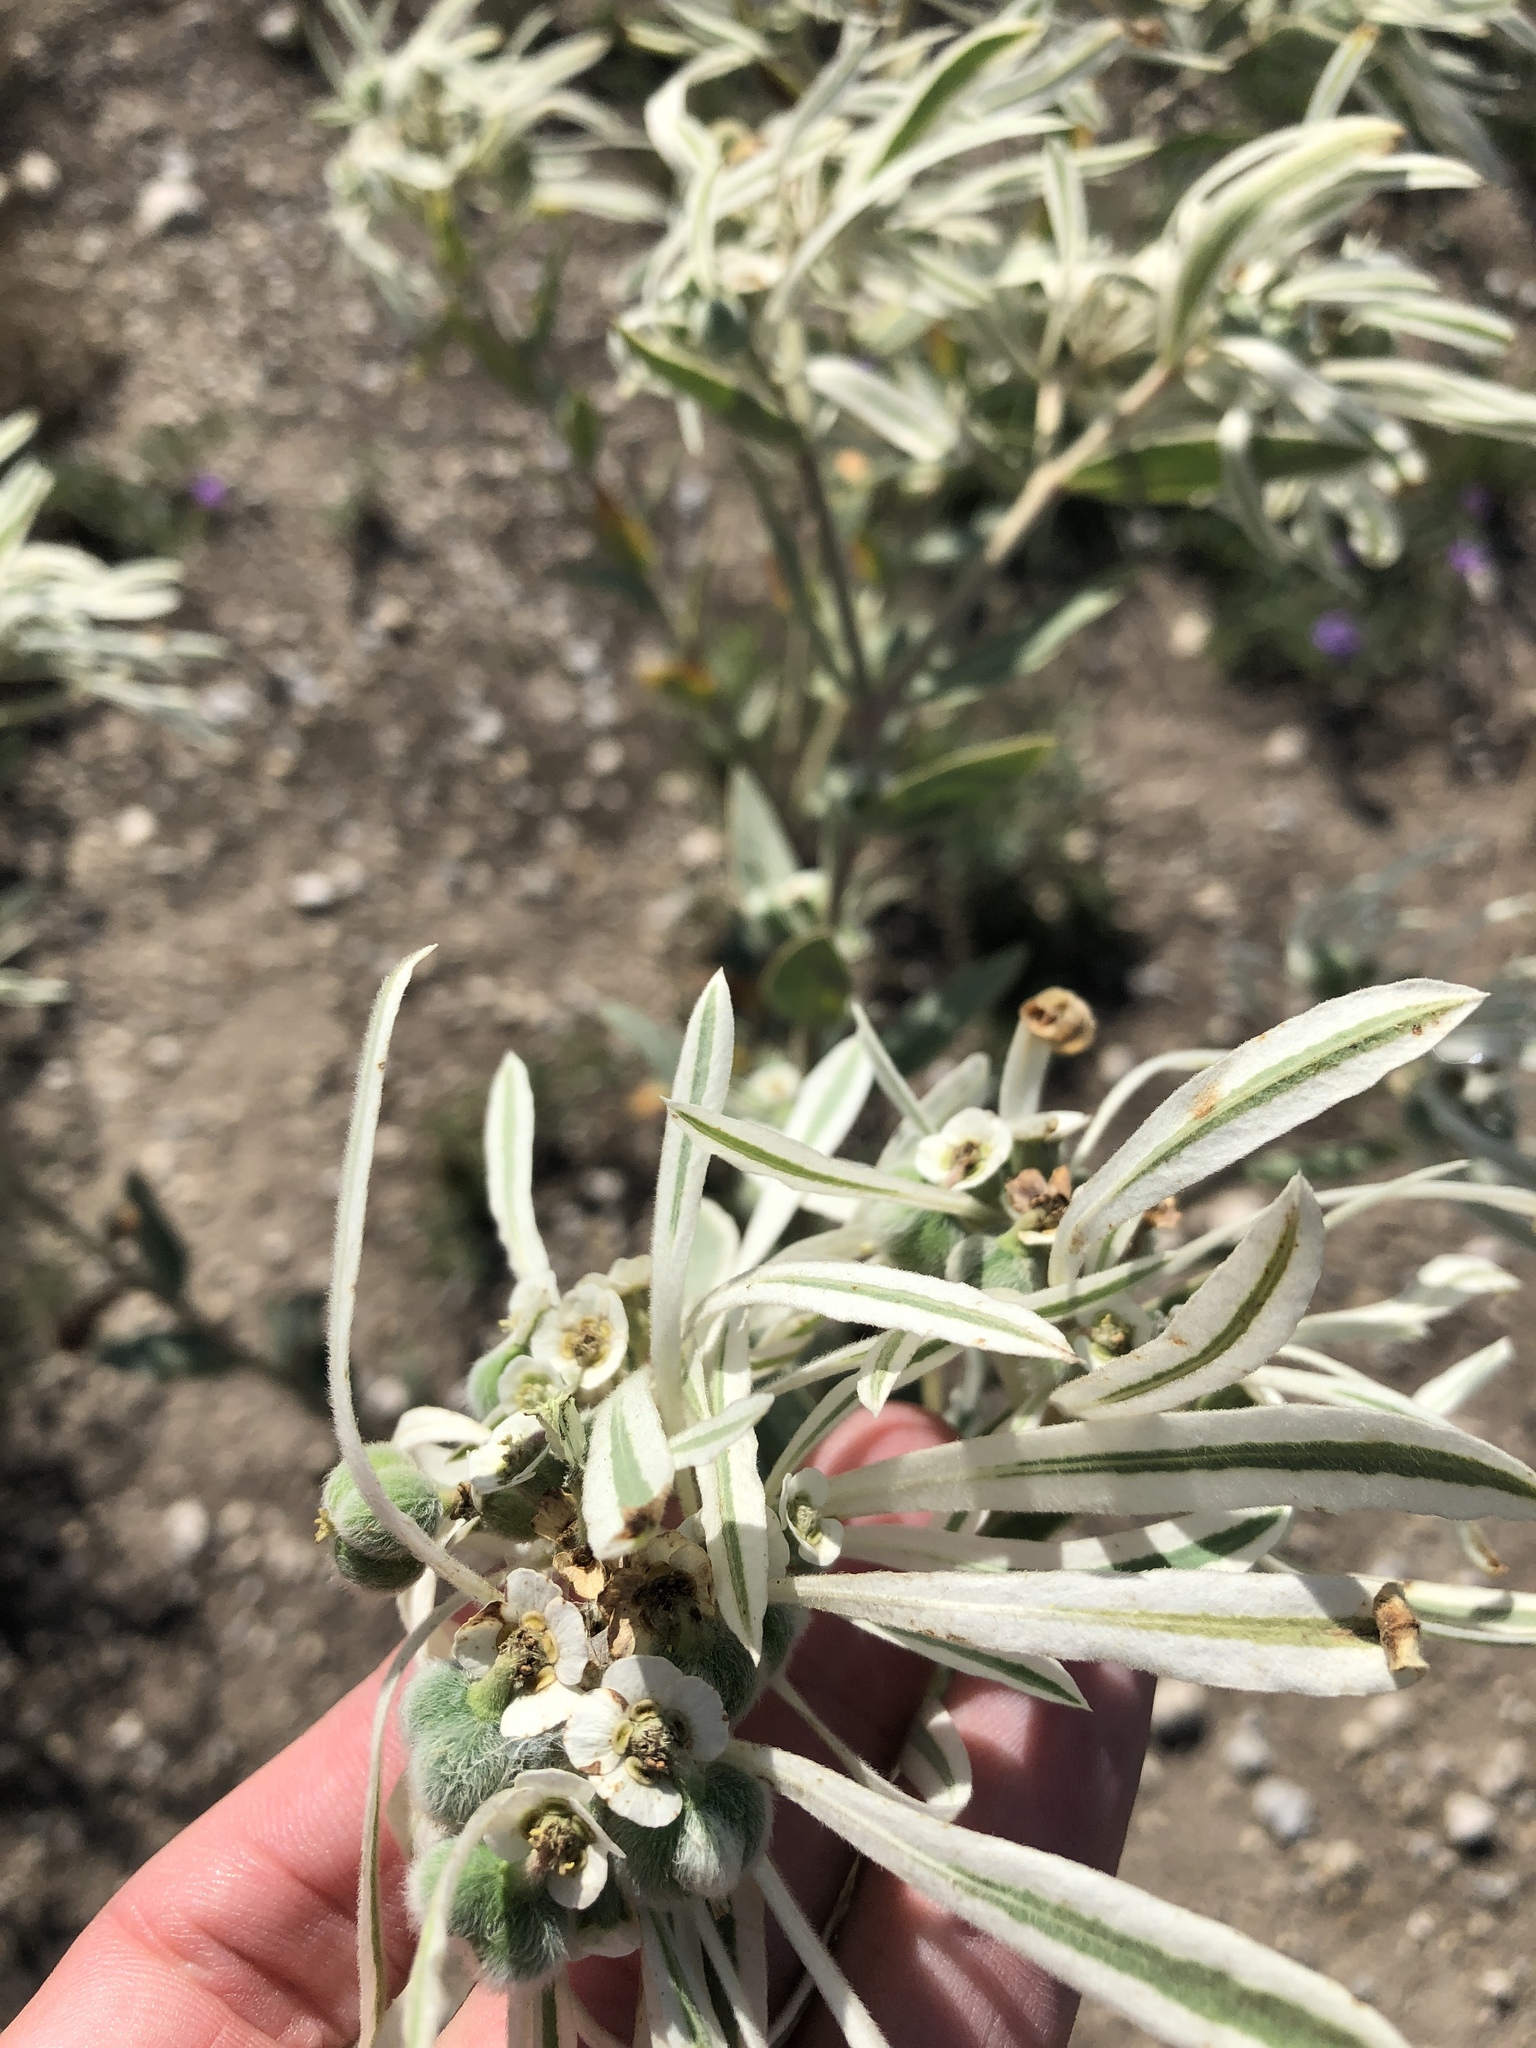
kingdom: Plantae
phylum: Tracheophyta
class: Magnoliopsida
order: Malpighiales
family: Euphorbiaceae
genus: Euphorbia
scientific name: Euphorbia bicolor
